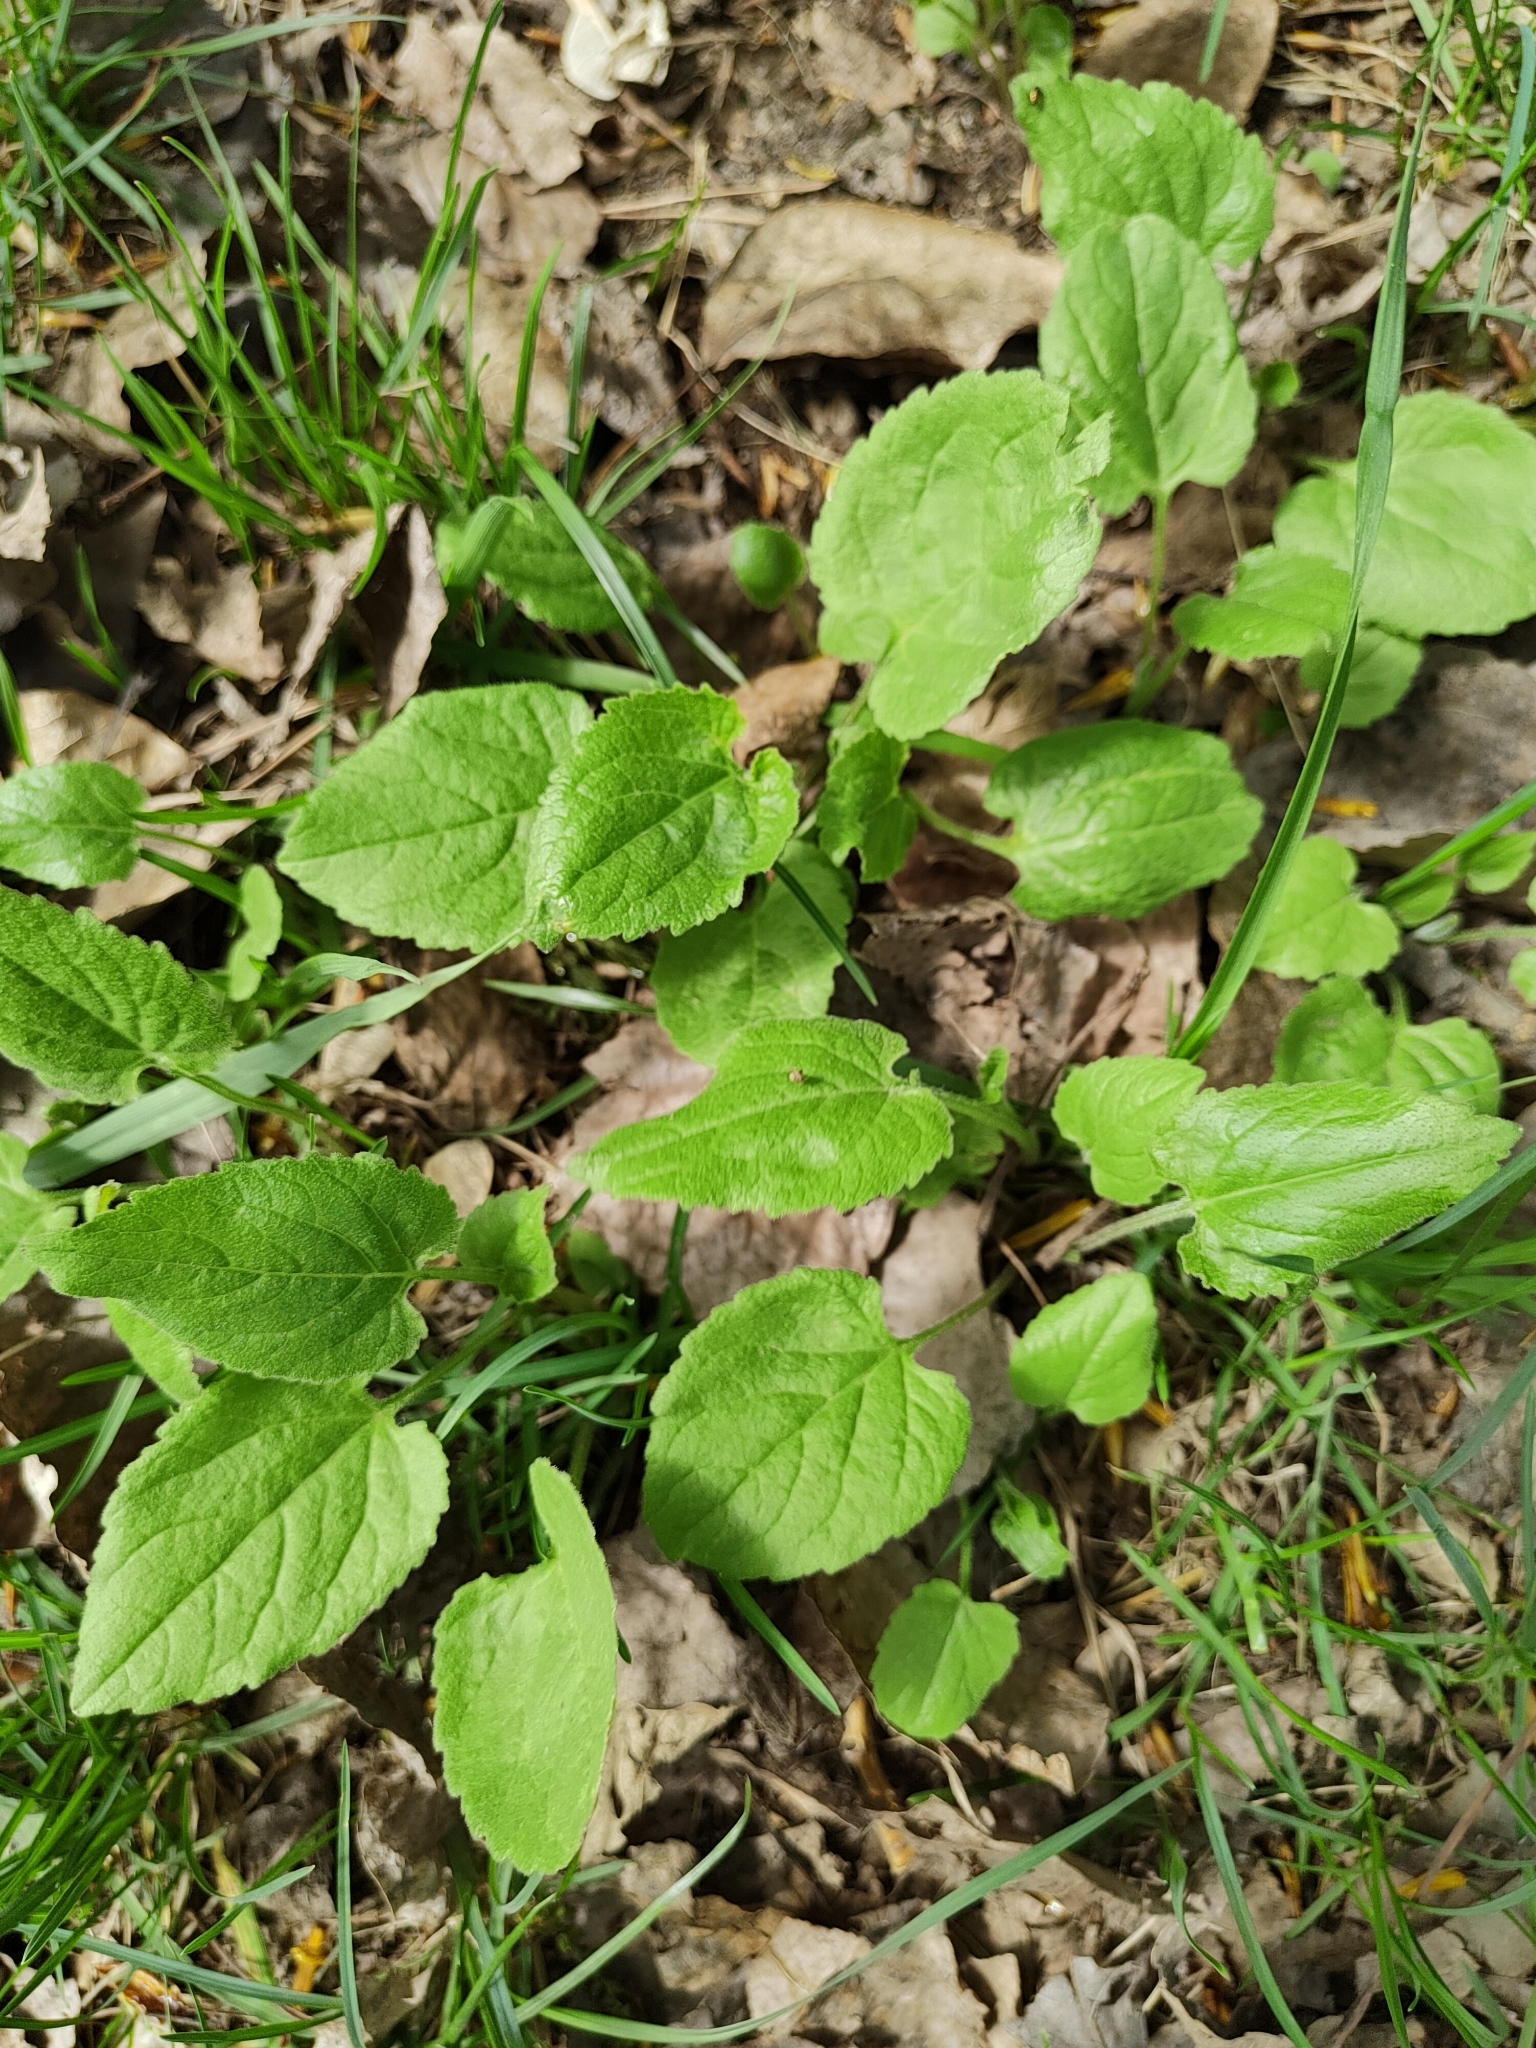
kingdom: Plantae
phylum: Tracheophyta
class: Magnoliopsida
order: Asterales
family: Campanulaceae
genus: Campanula
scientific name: Campanula rapunculoides
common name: Creeping bellflower
